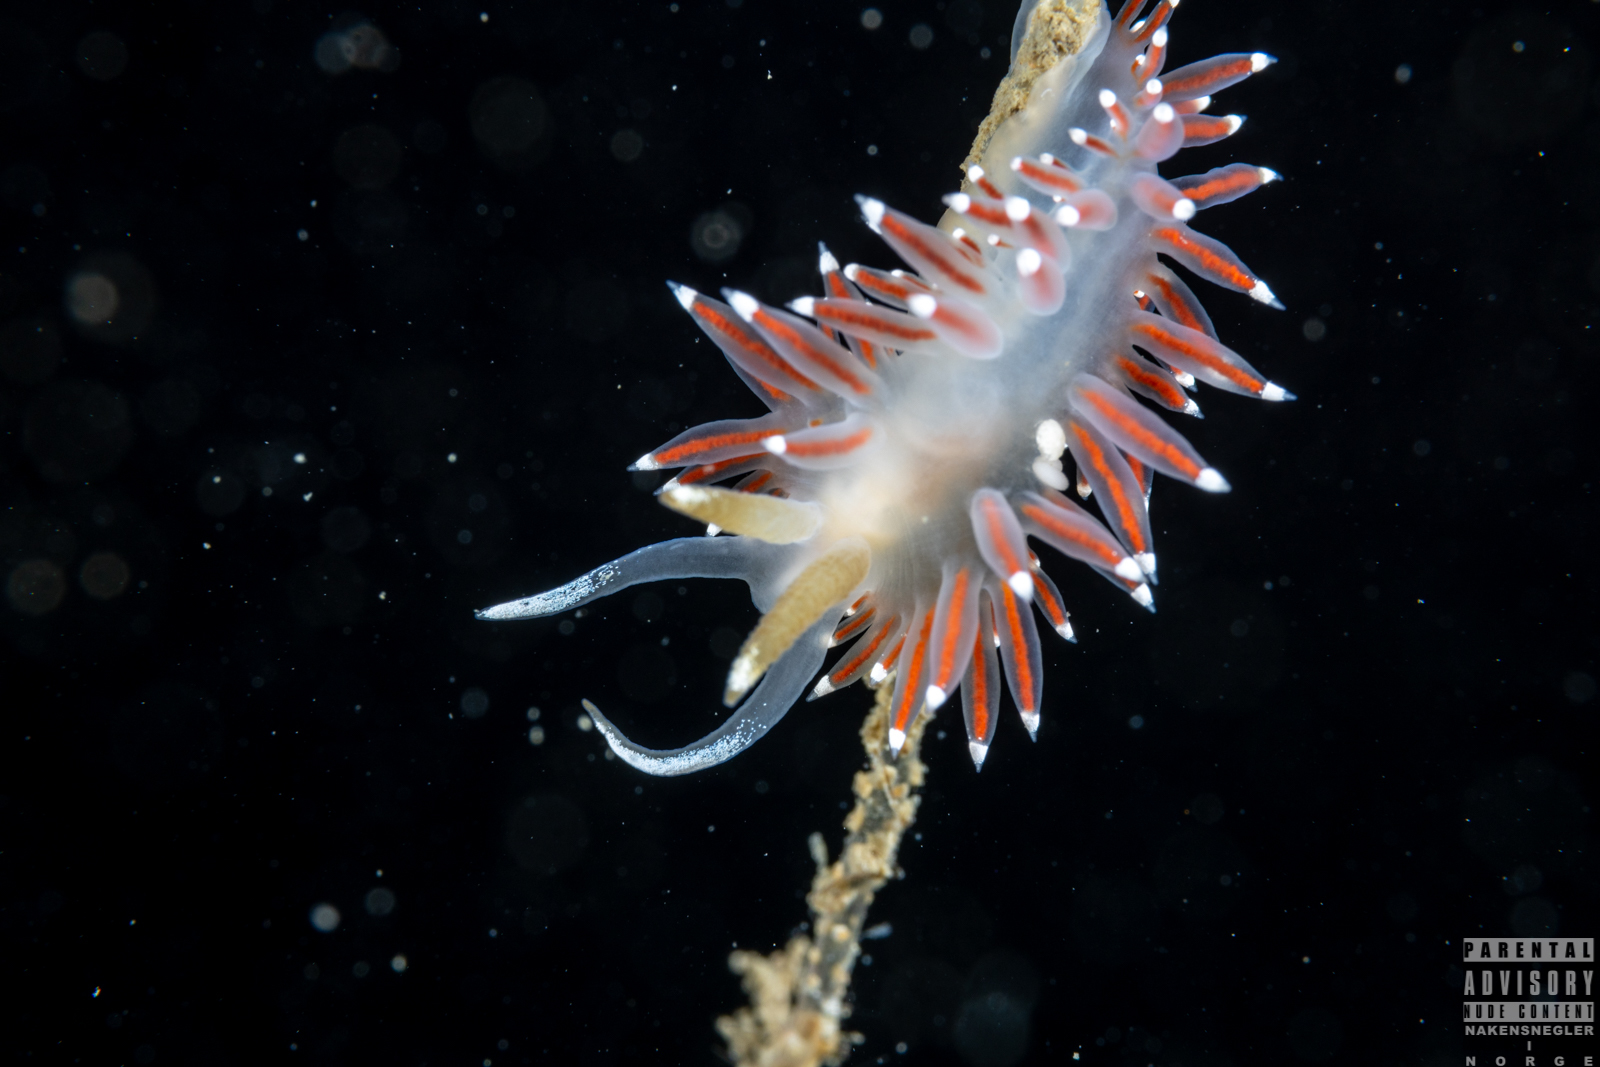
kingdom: Animalia
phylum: Mollusca
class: Gastropoda
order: Nudibranchia
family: Coryphellidae
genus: Coryphella
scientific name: Coryphella browni
